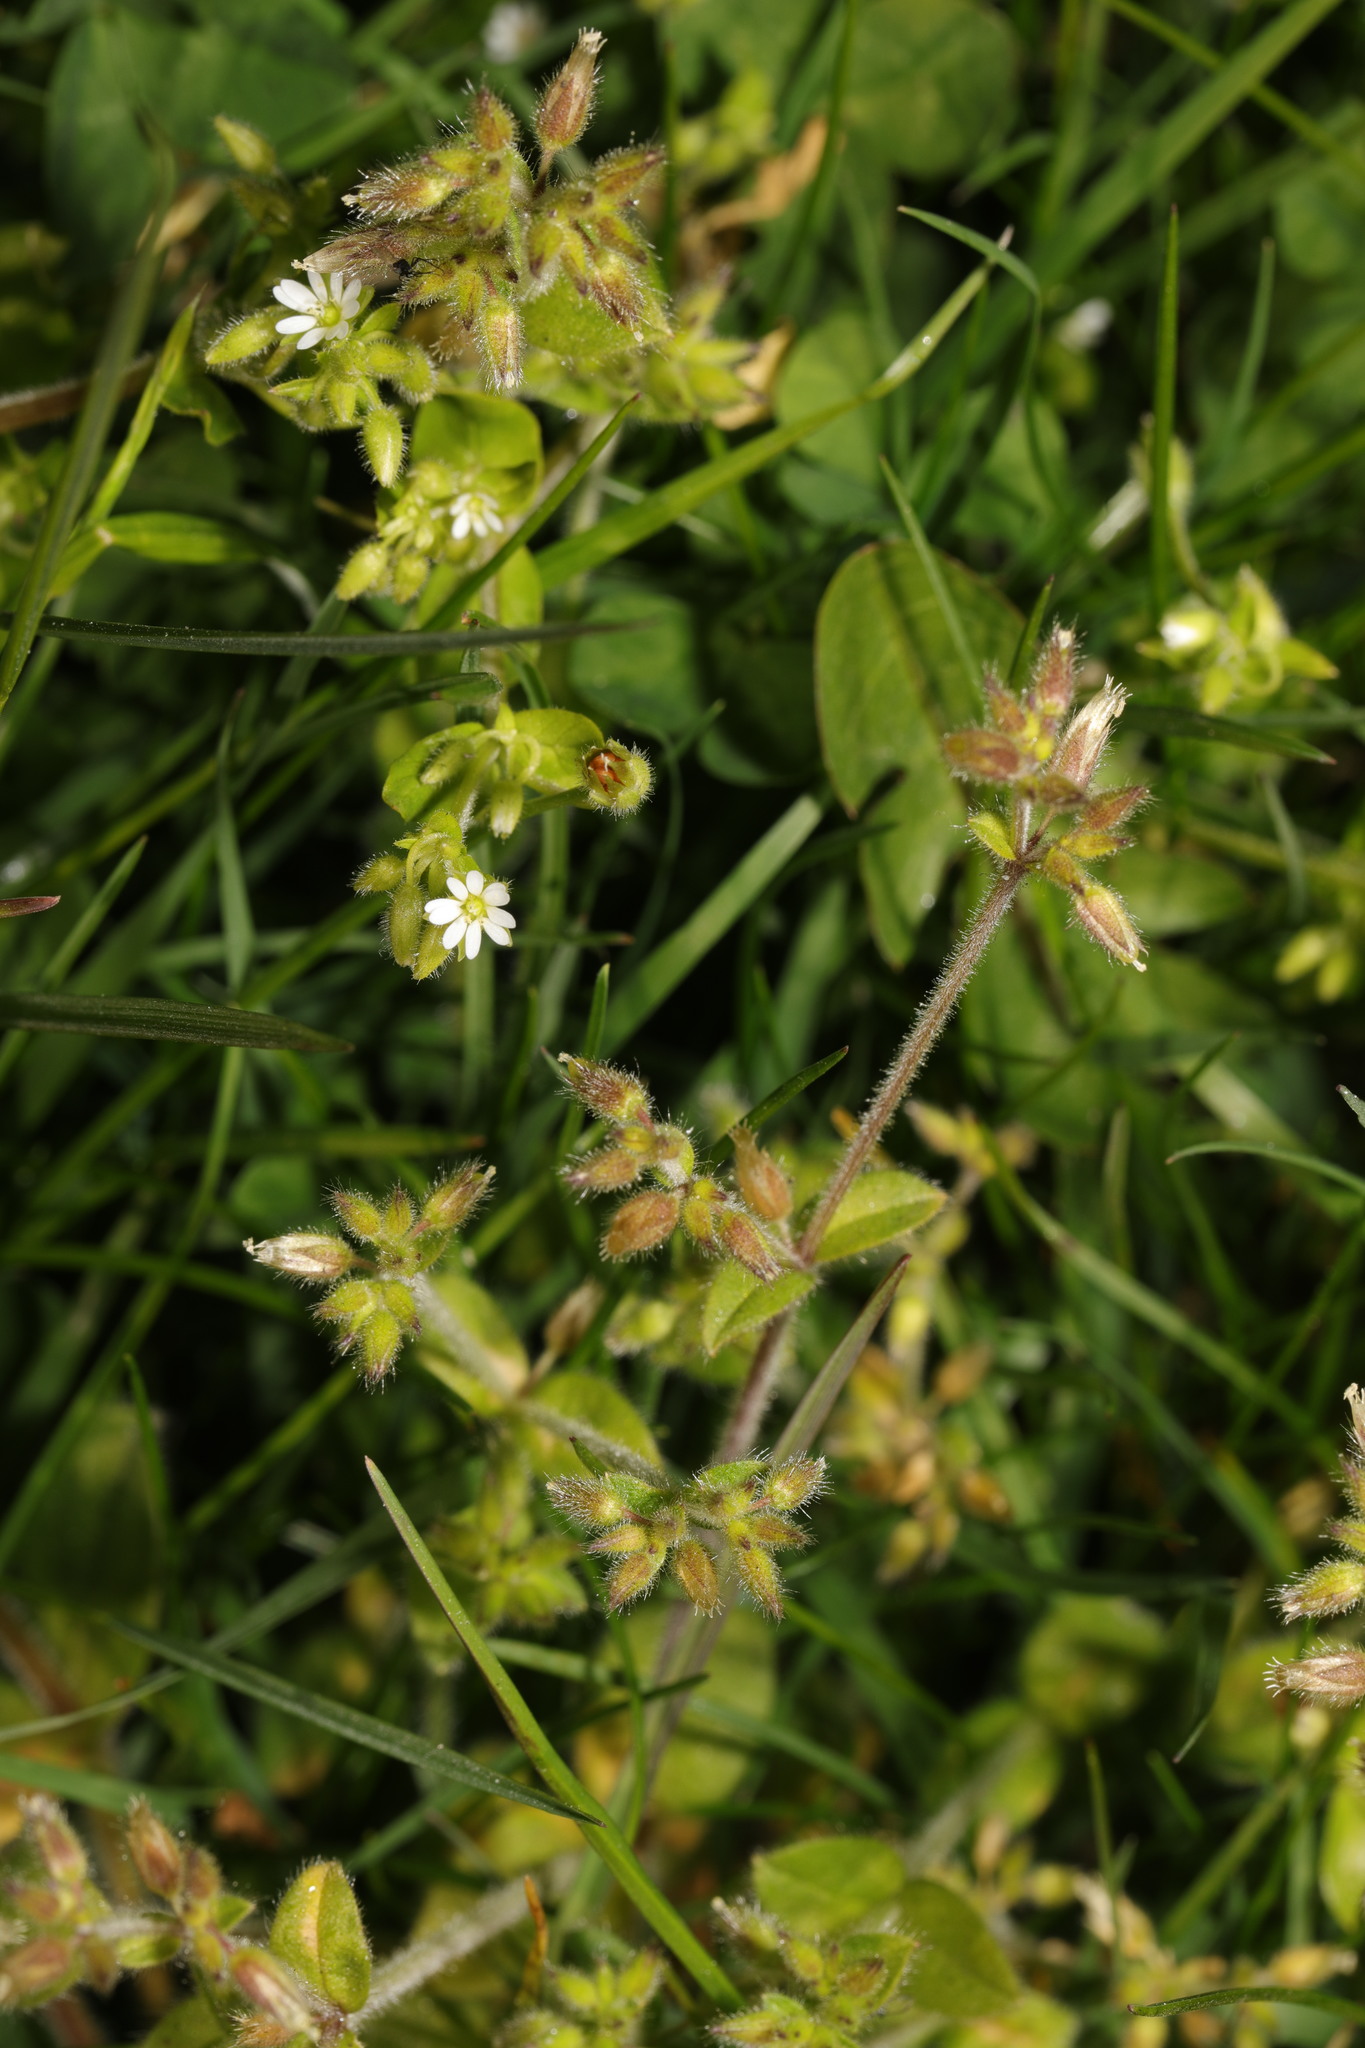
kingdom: Plantae
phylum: Tracheophyta
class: Magnoliopsida
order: Caryophyllales
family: Caryophyllaceae
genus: Cerastium
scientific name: Cerastium glomeratum
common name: Sticky chickweed
